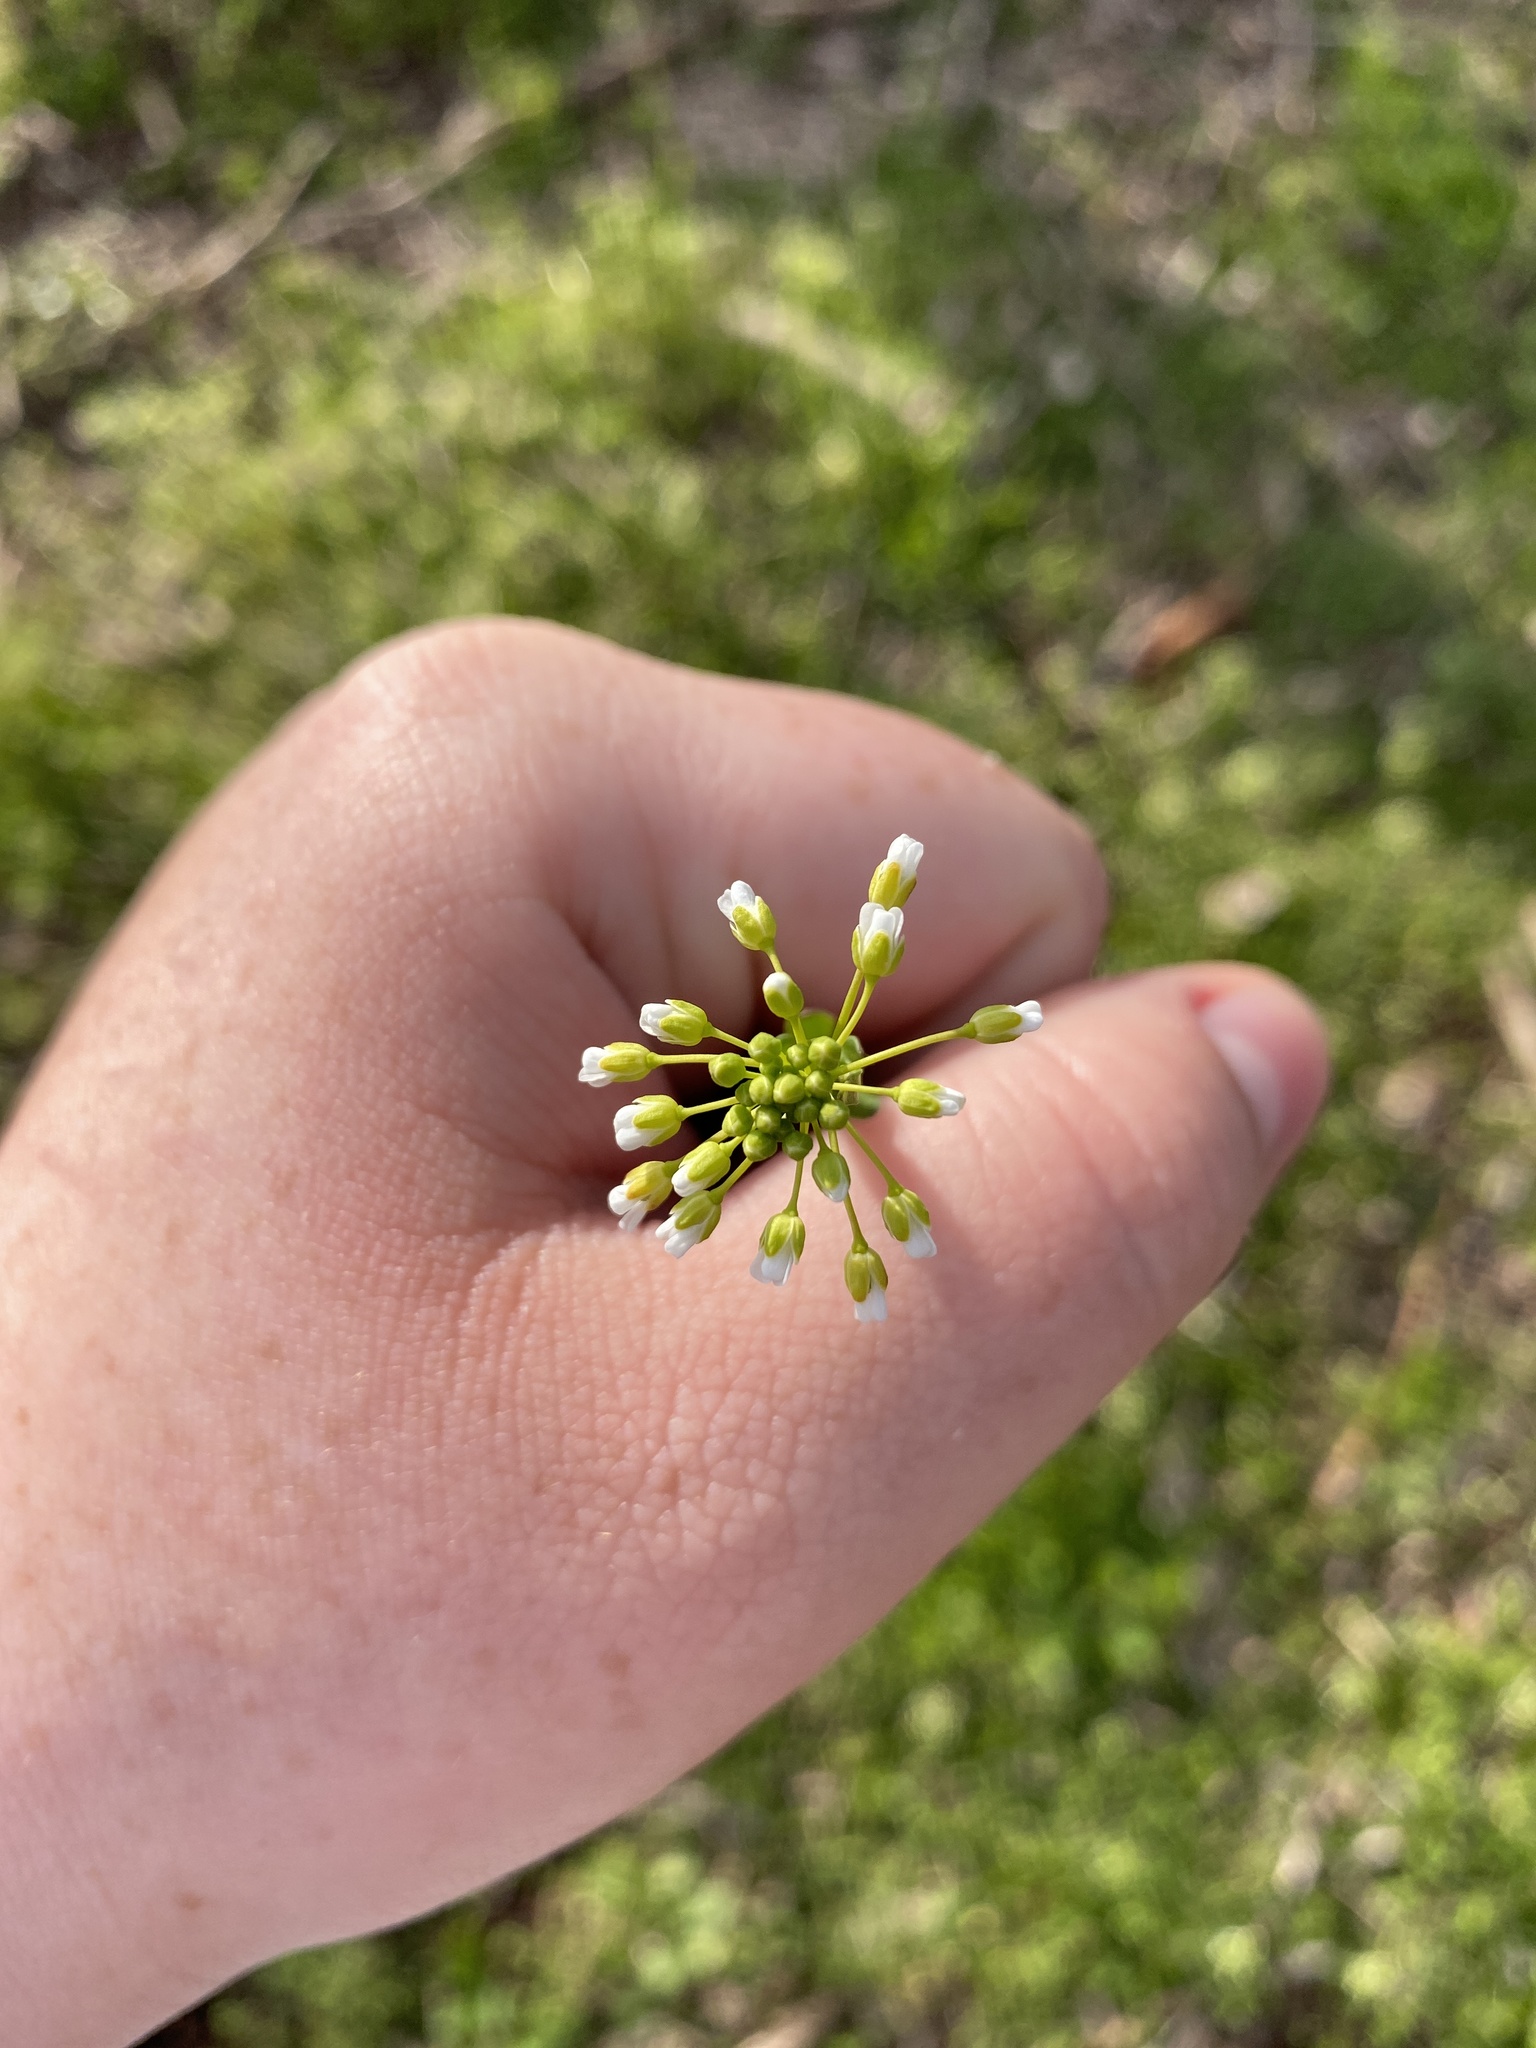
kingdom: Plantae
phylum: Tracheophyta
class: Magnoliopsida
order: Brassicales
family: Brassicaceae
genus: Mummenhoffia
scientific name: Mummenhoffia alliacea
